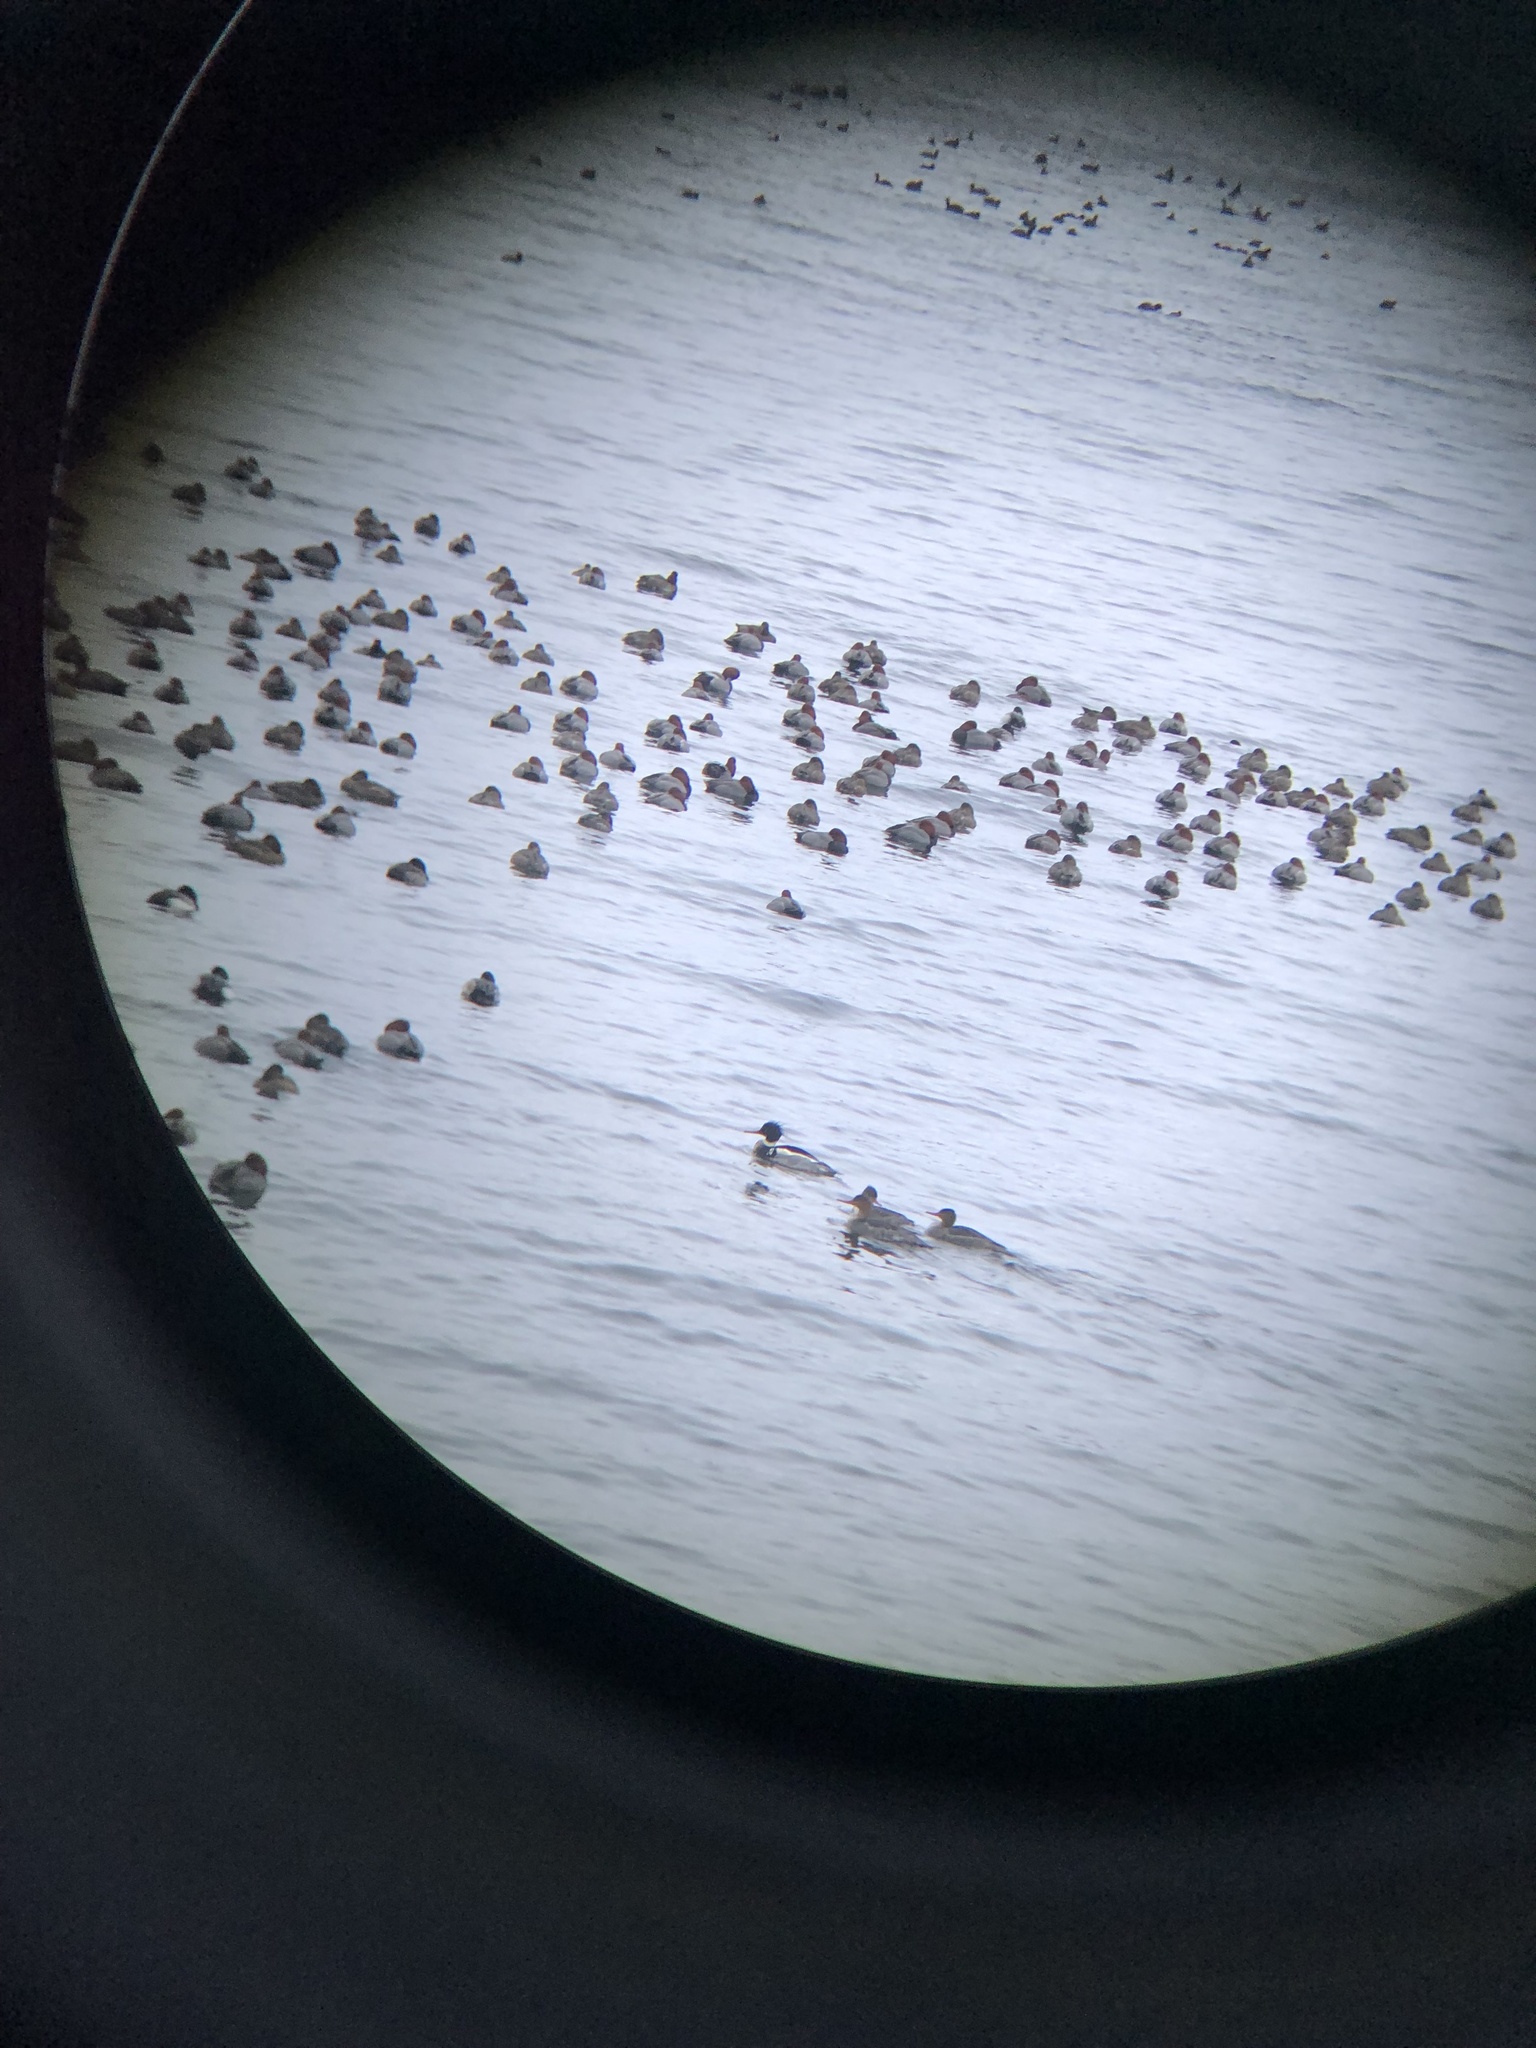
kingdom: Animalia
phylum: Chordata
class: Aves
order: Anseriformes
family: Anatidae
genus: Mergus
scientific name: Mergus serrator
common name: Red-breasted merganser
